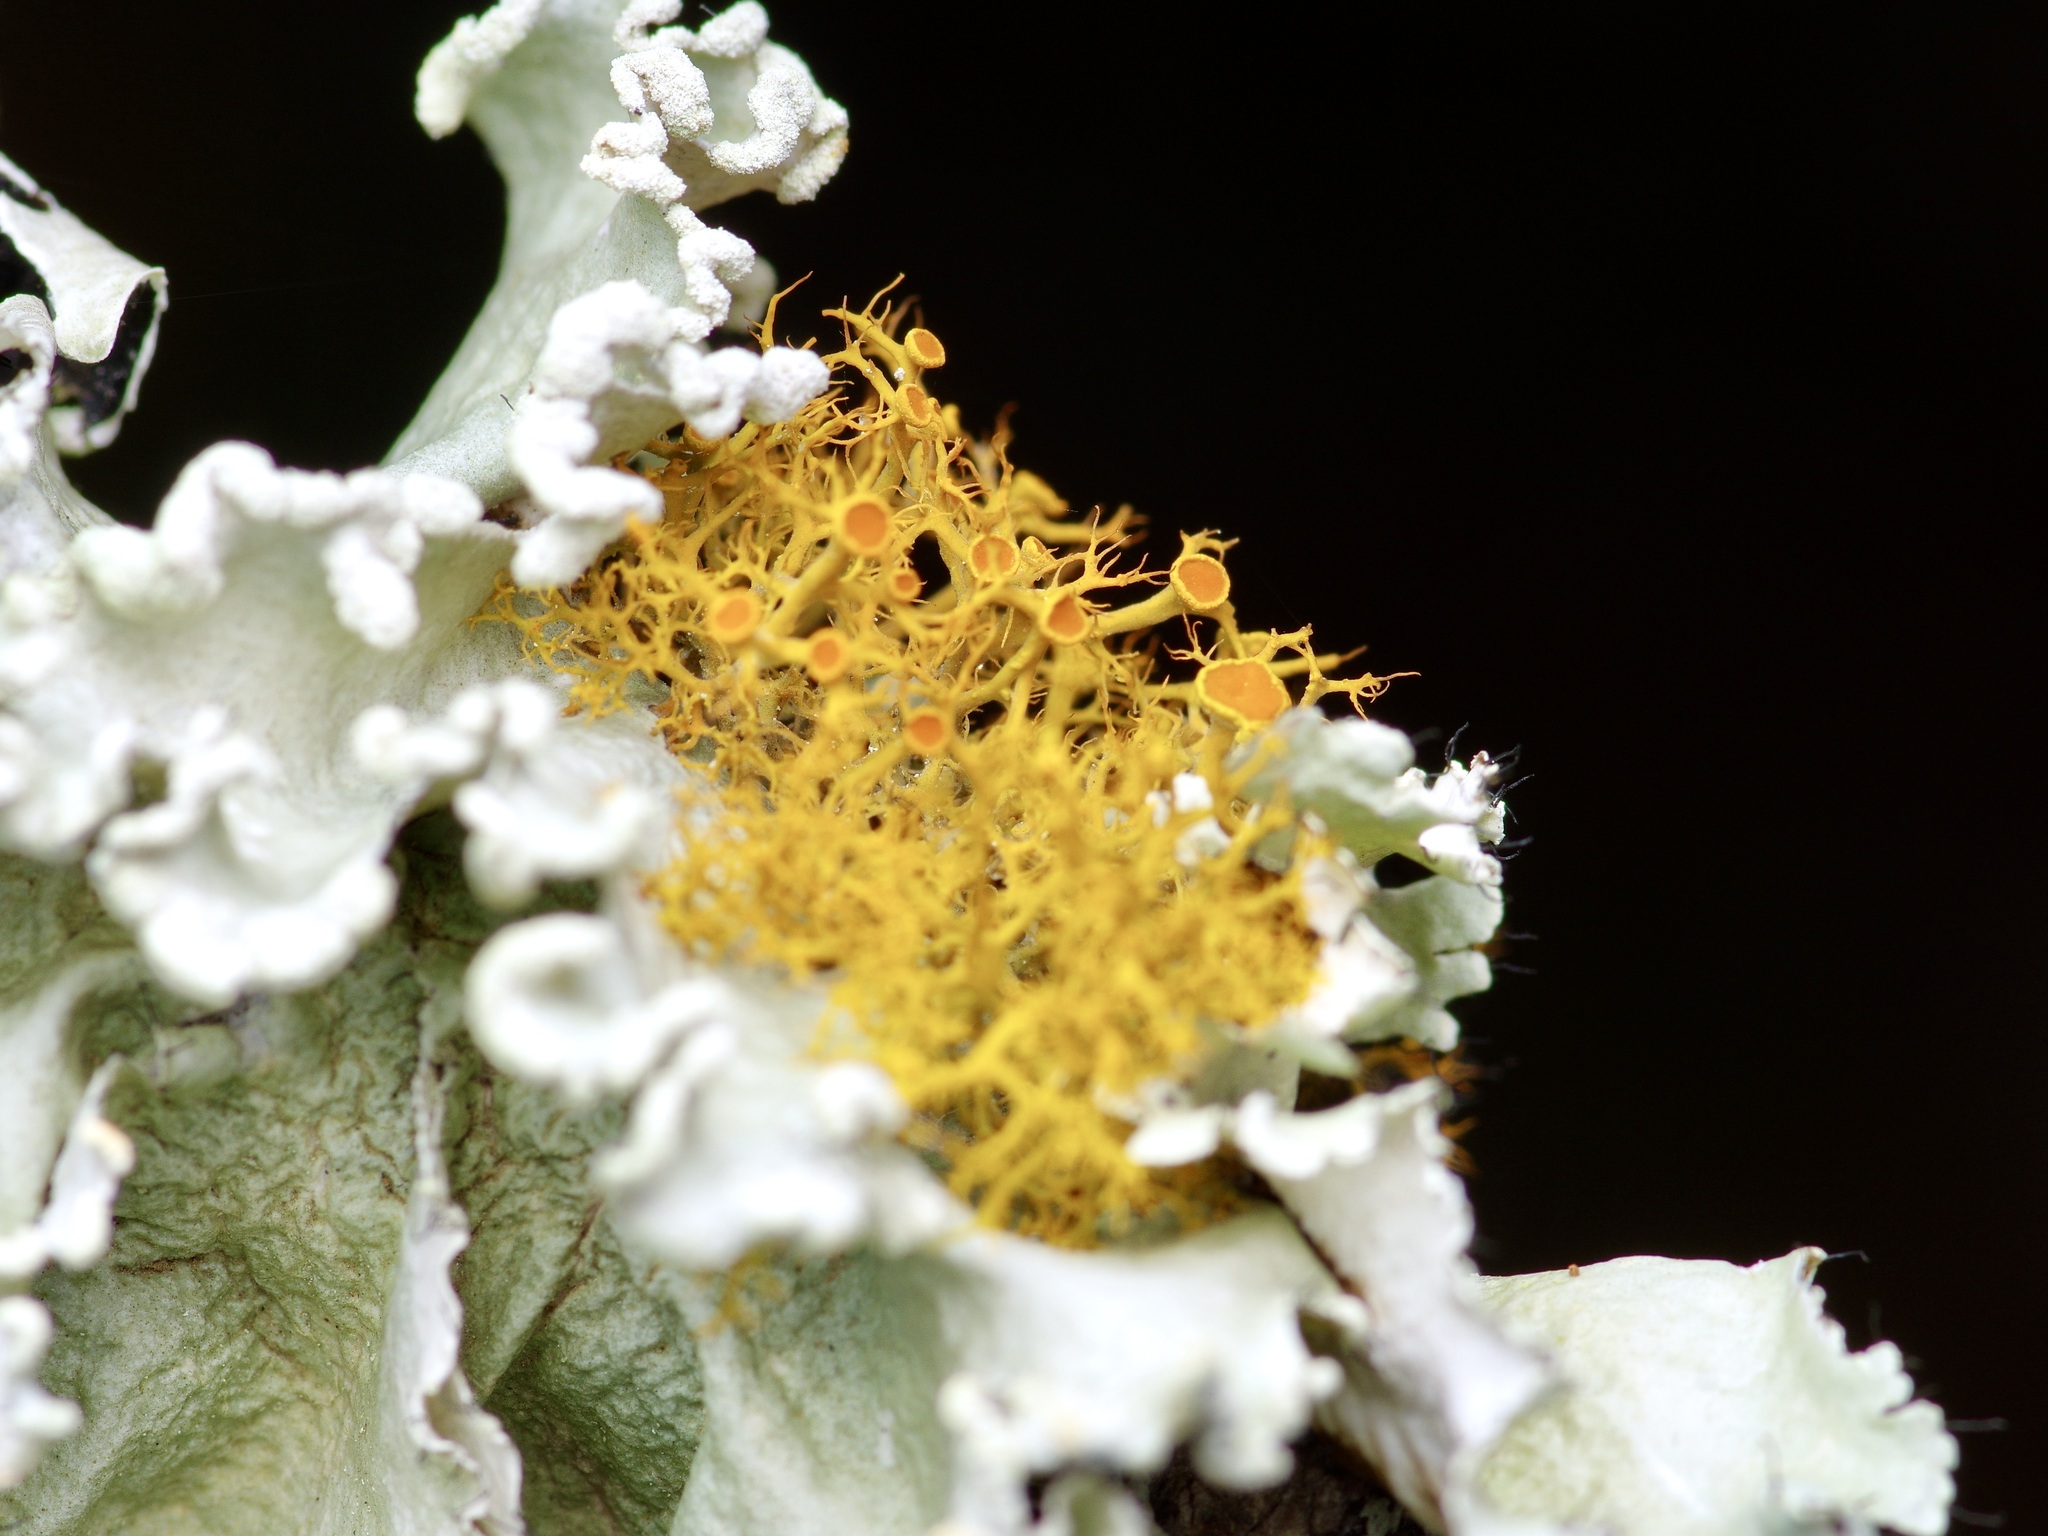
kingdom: Fungi
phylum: Ascomycota
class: Lecanoromycetes
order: Teloschistales
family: Teloschistaceae
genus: Teloschistes
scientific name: Teloschistes exilis
